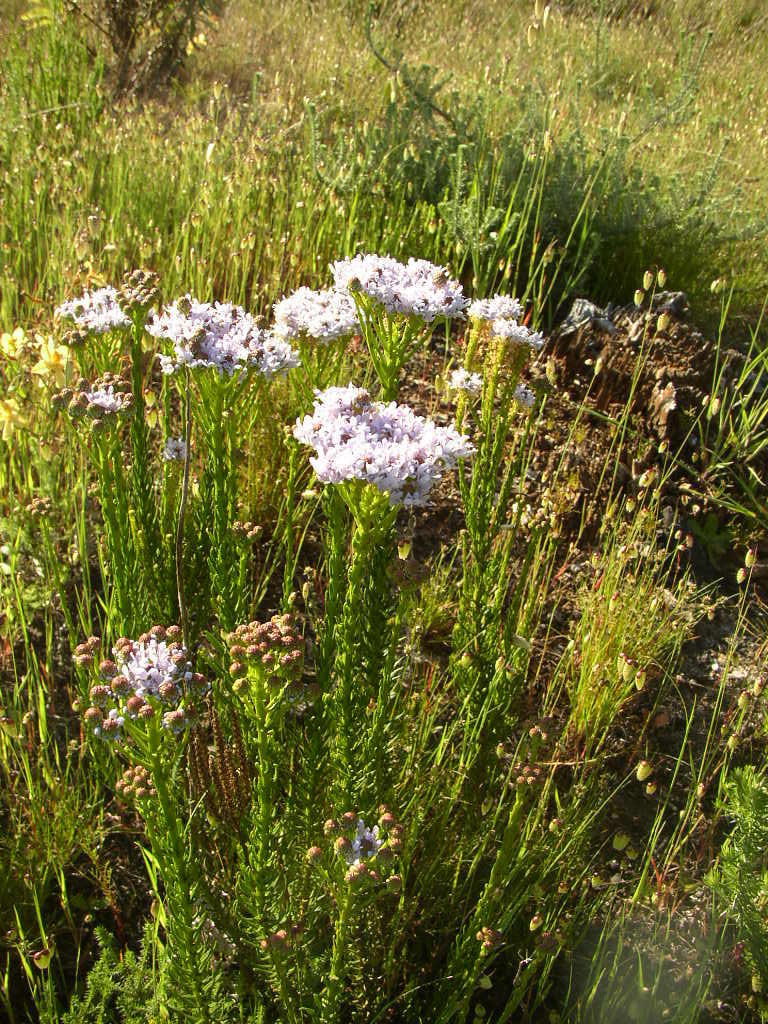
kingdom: Plantae
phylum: Tracheophyta
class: Magnoliopsida
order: Lamiales
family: Scrophulariaceae
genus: Pseudoselago
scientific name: Pseudoselago spuria
